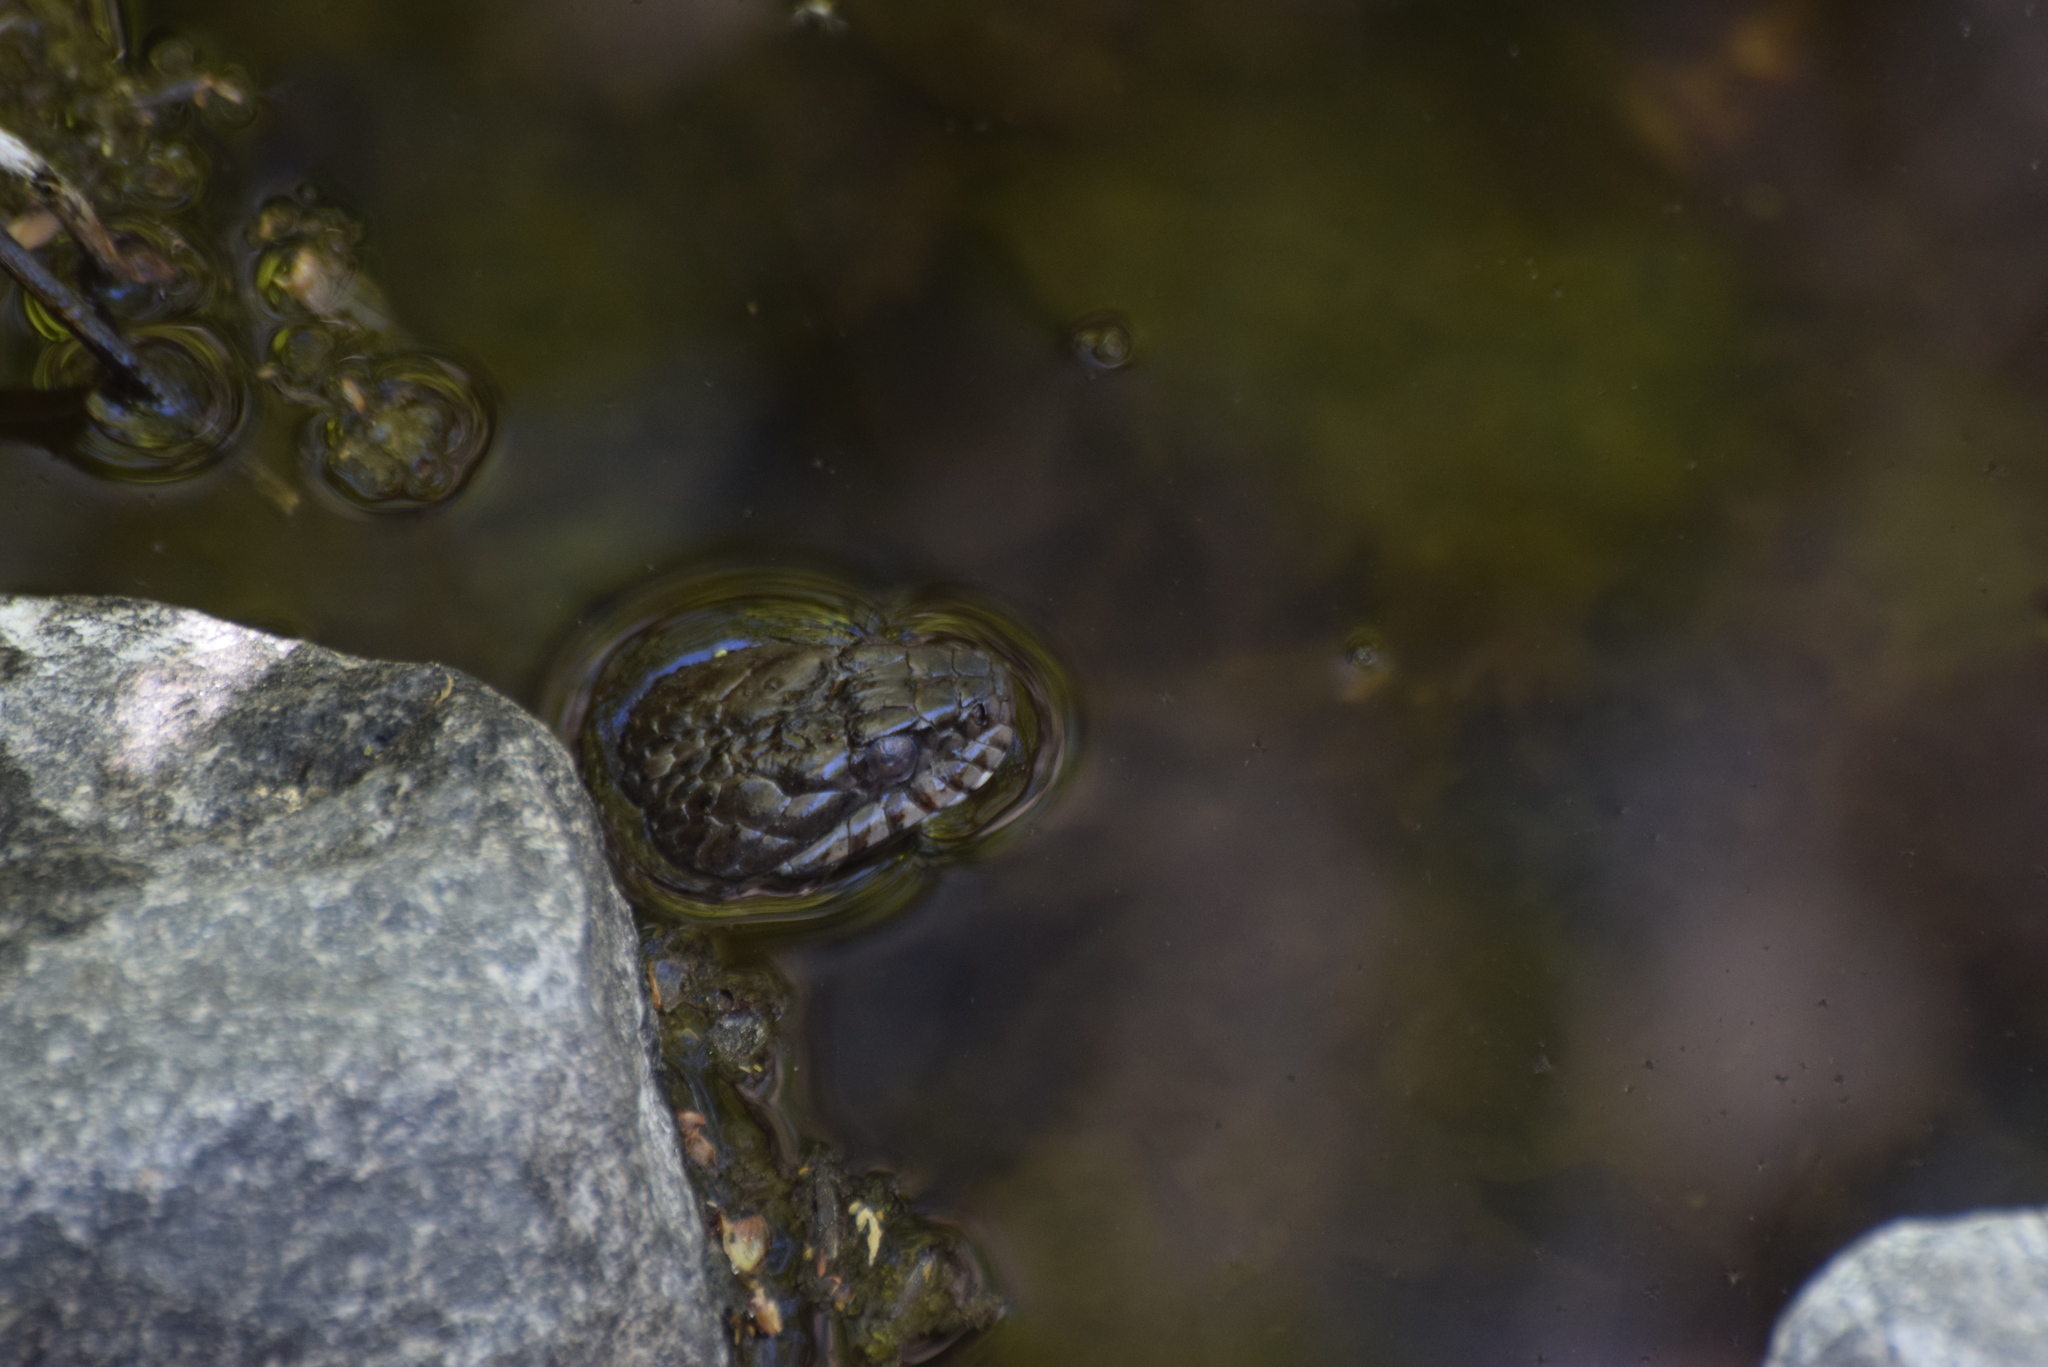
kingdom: Animalia
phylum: Chordata
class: Squamata
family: Colubridae
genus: Nerodia
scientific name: Nerodia sipedon
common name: Northern water snake
